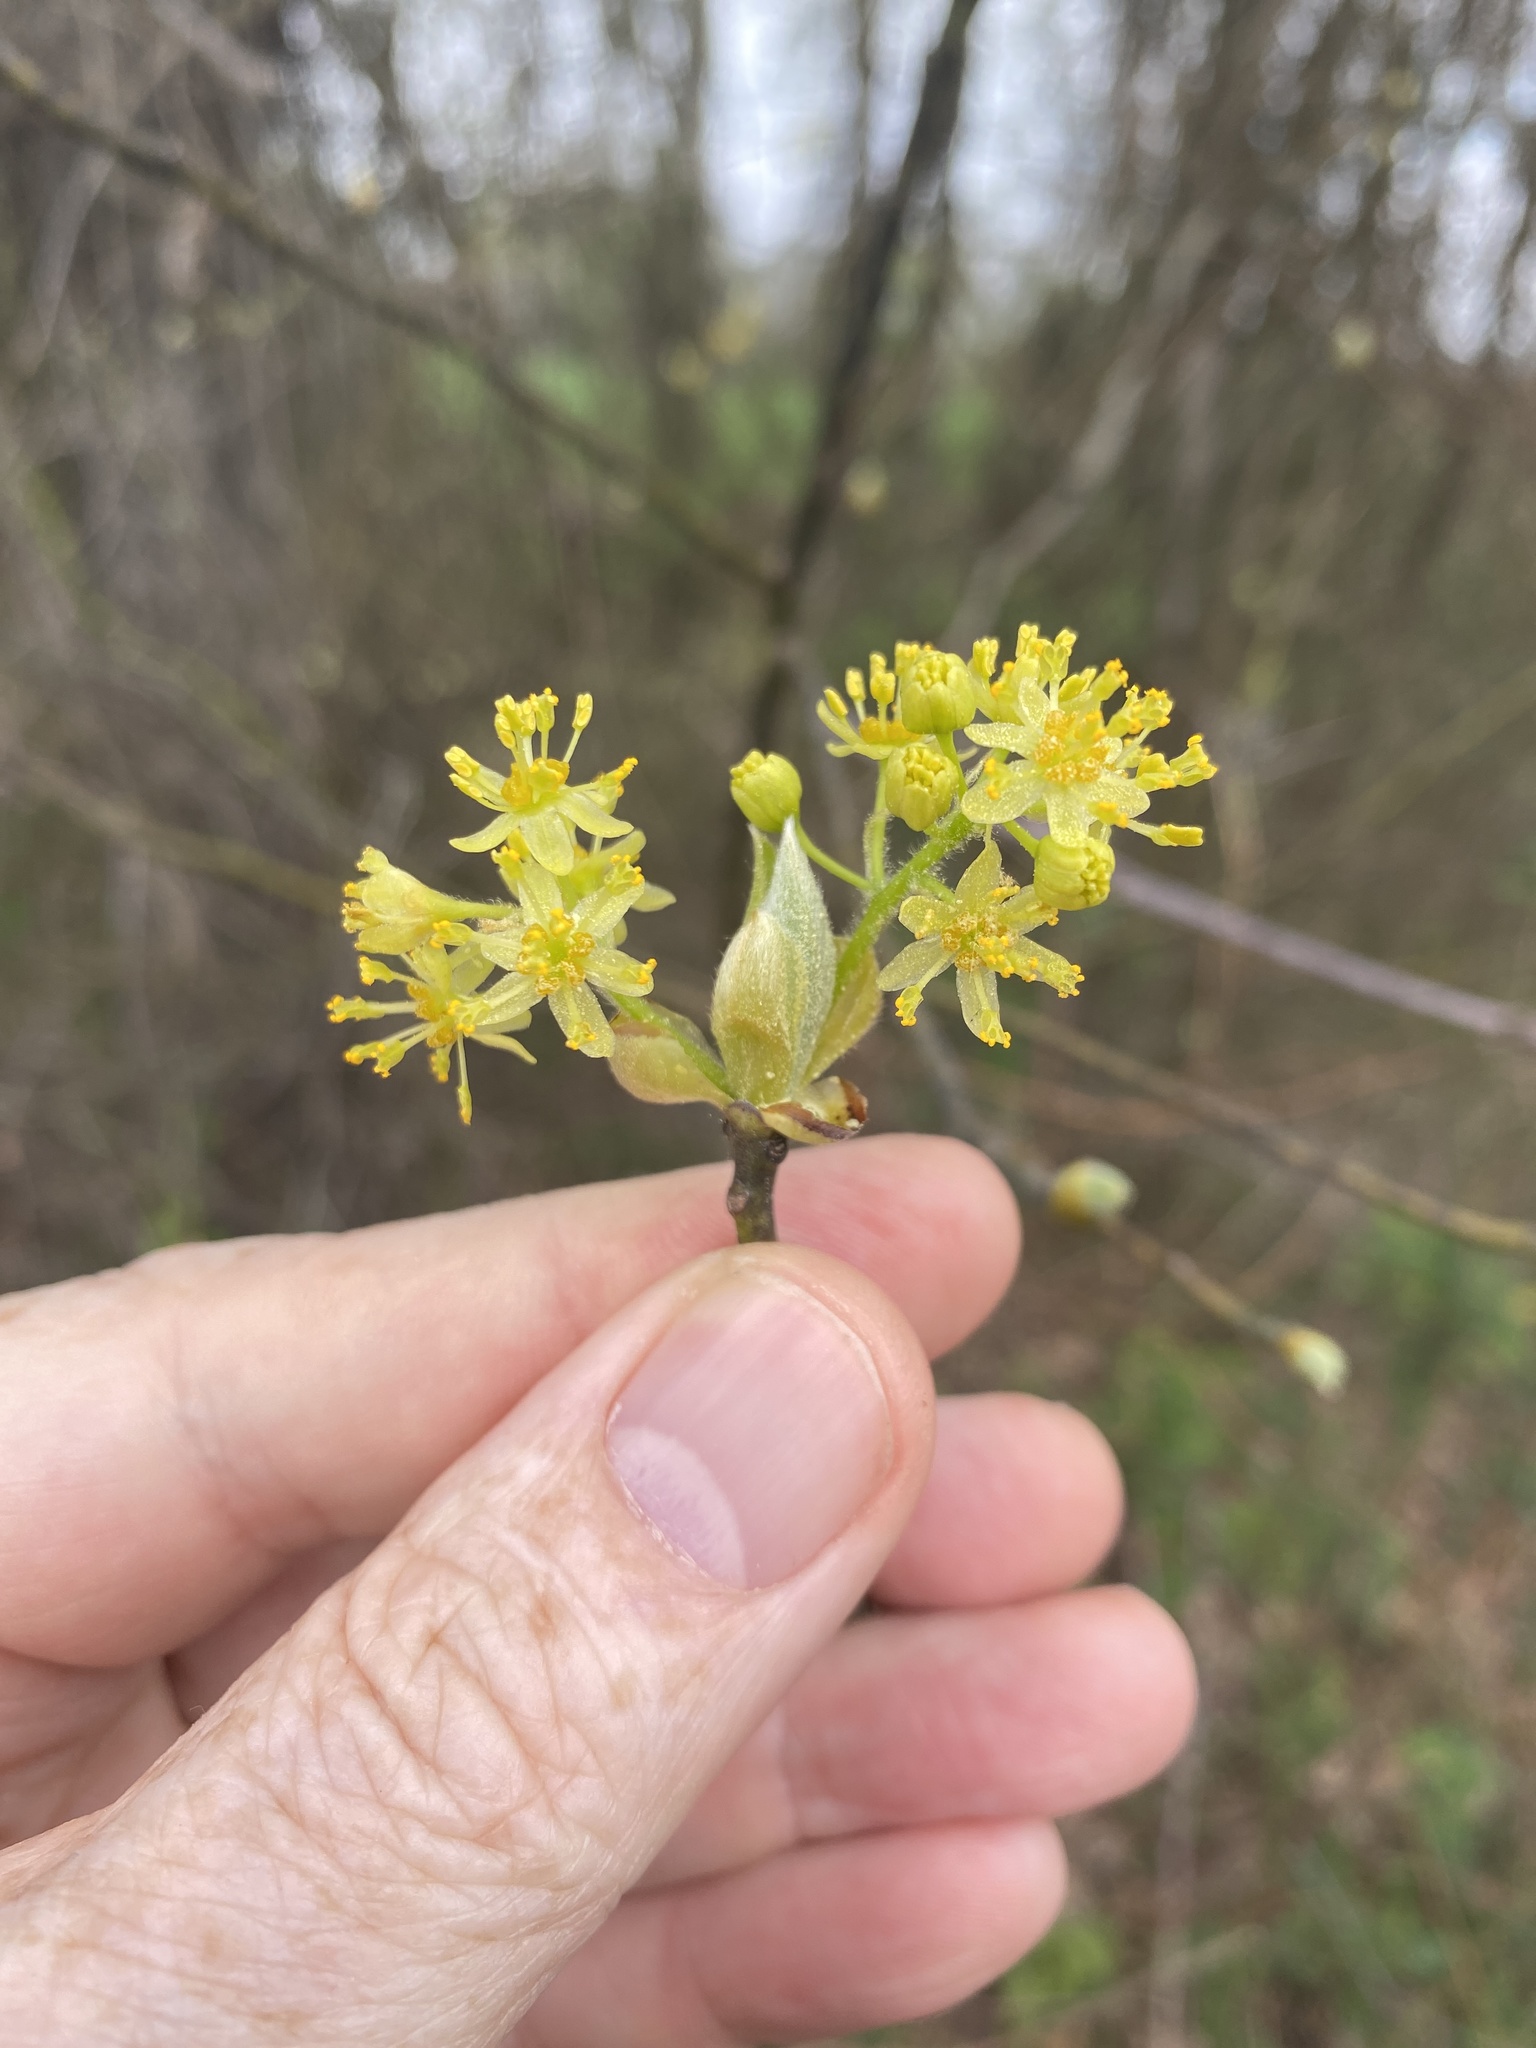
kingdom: Plantae
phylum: Tracheophyta
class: Magnoliopsida
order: Laurales
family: Lauraceae
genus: Sassafras
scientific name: Sassafras albidum
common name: Sassafras
